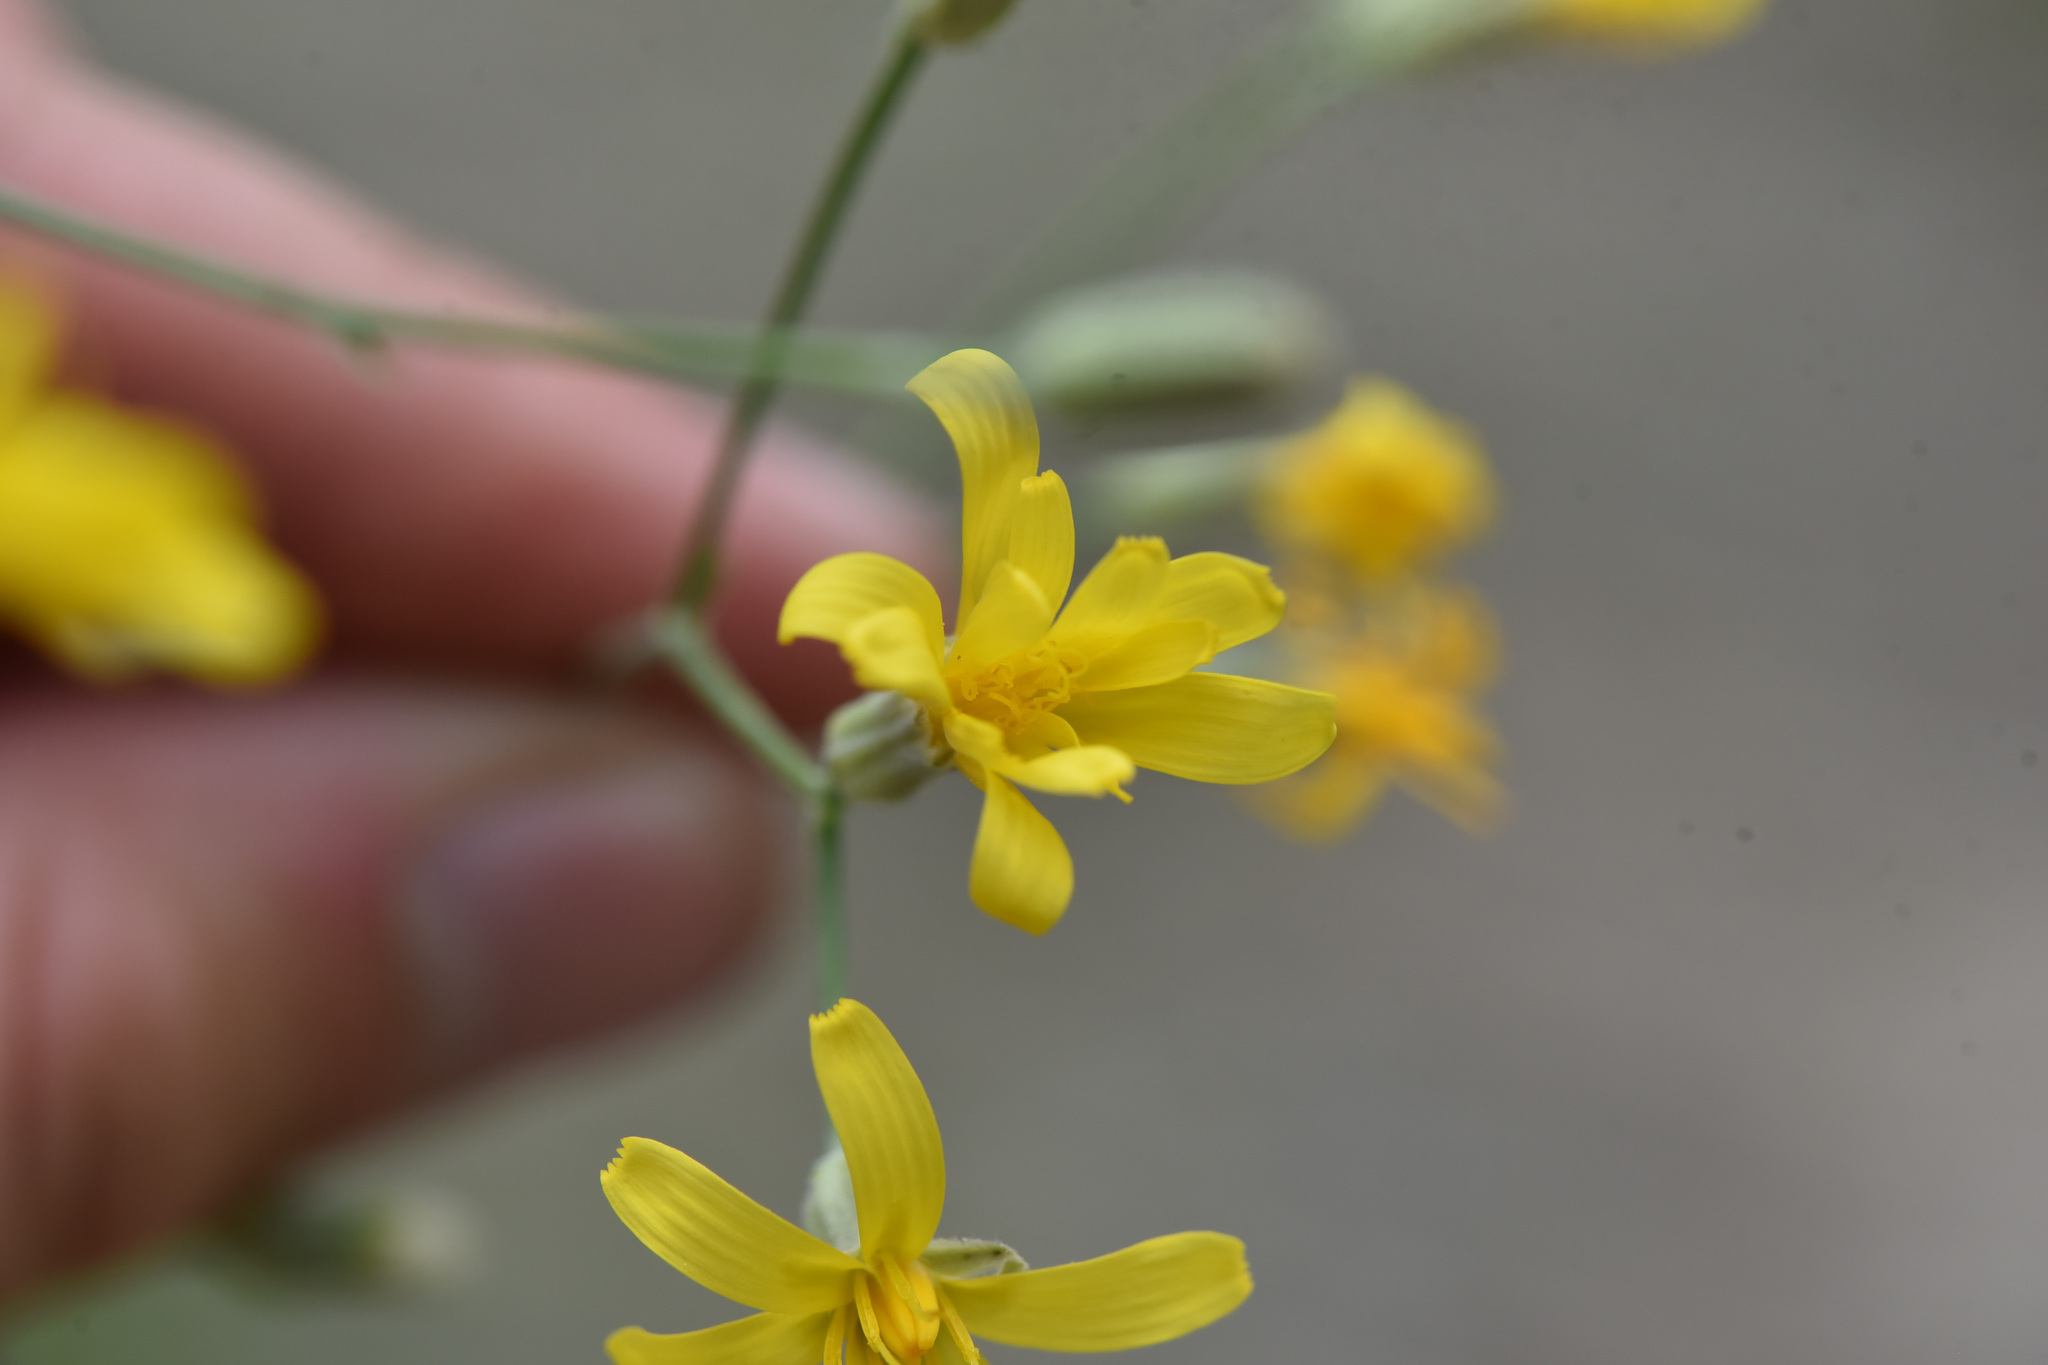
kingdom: Plantae
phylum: Tracheophyta
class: Magnoliopsida
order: Asterales
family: Asteraceae
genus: Crepis
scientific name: Crepis atribarba
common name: Dark hawk's-beard
